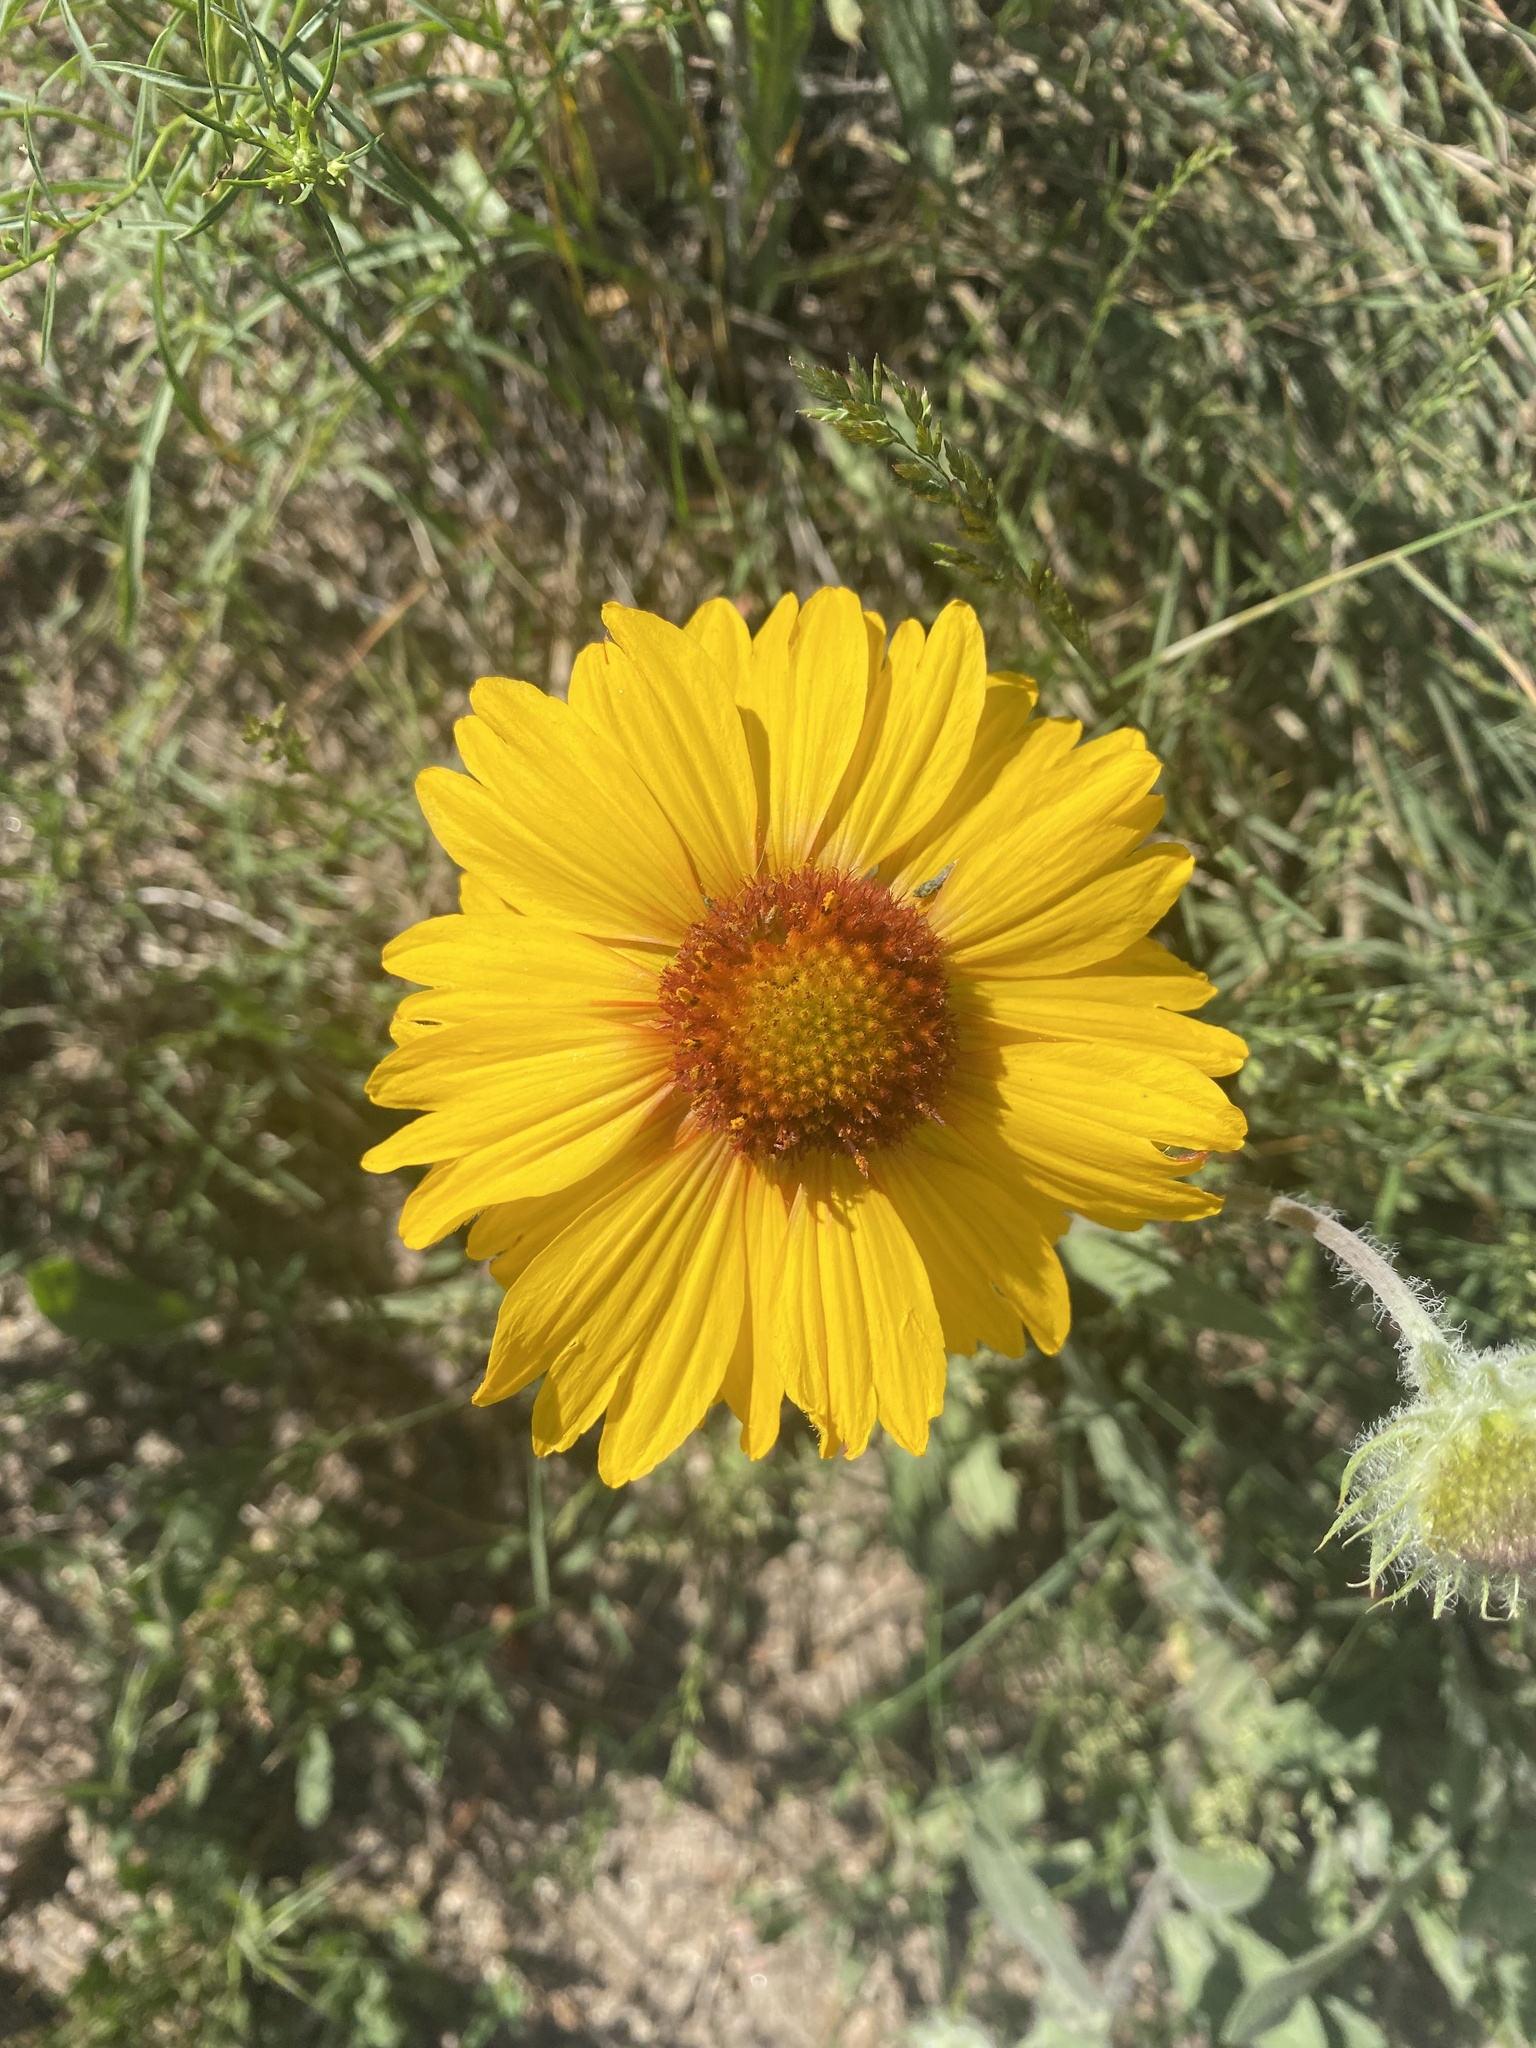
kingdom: Plantae
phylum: Tracheophyta
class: Magnoliopsida
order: Asterales
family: Asteraceae
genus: Gaillardia
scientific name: Gaillardia aristata
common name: Blanket-flower
